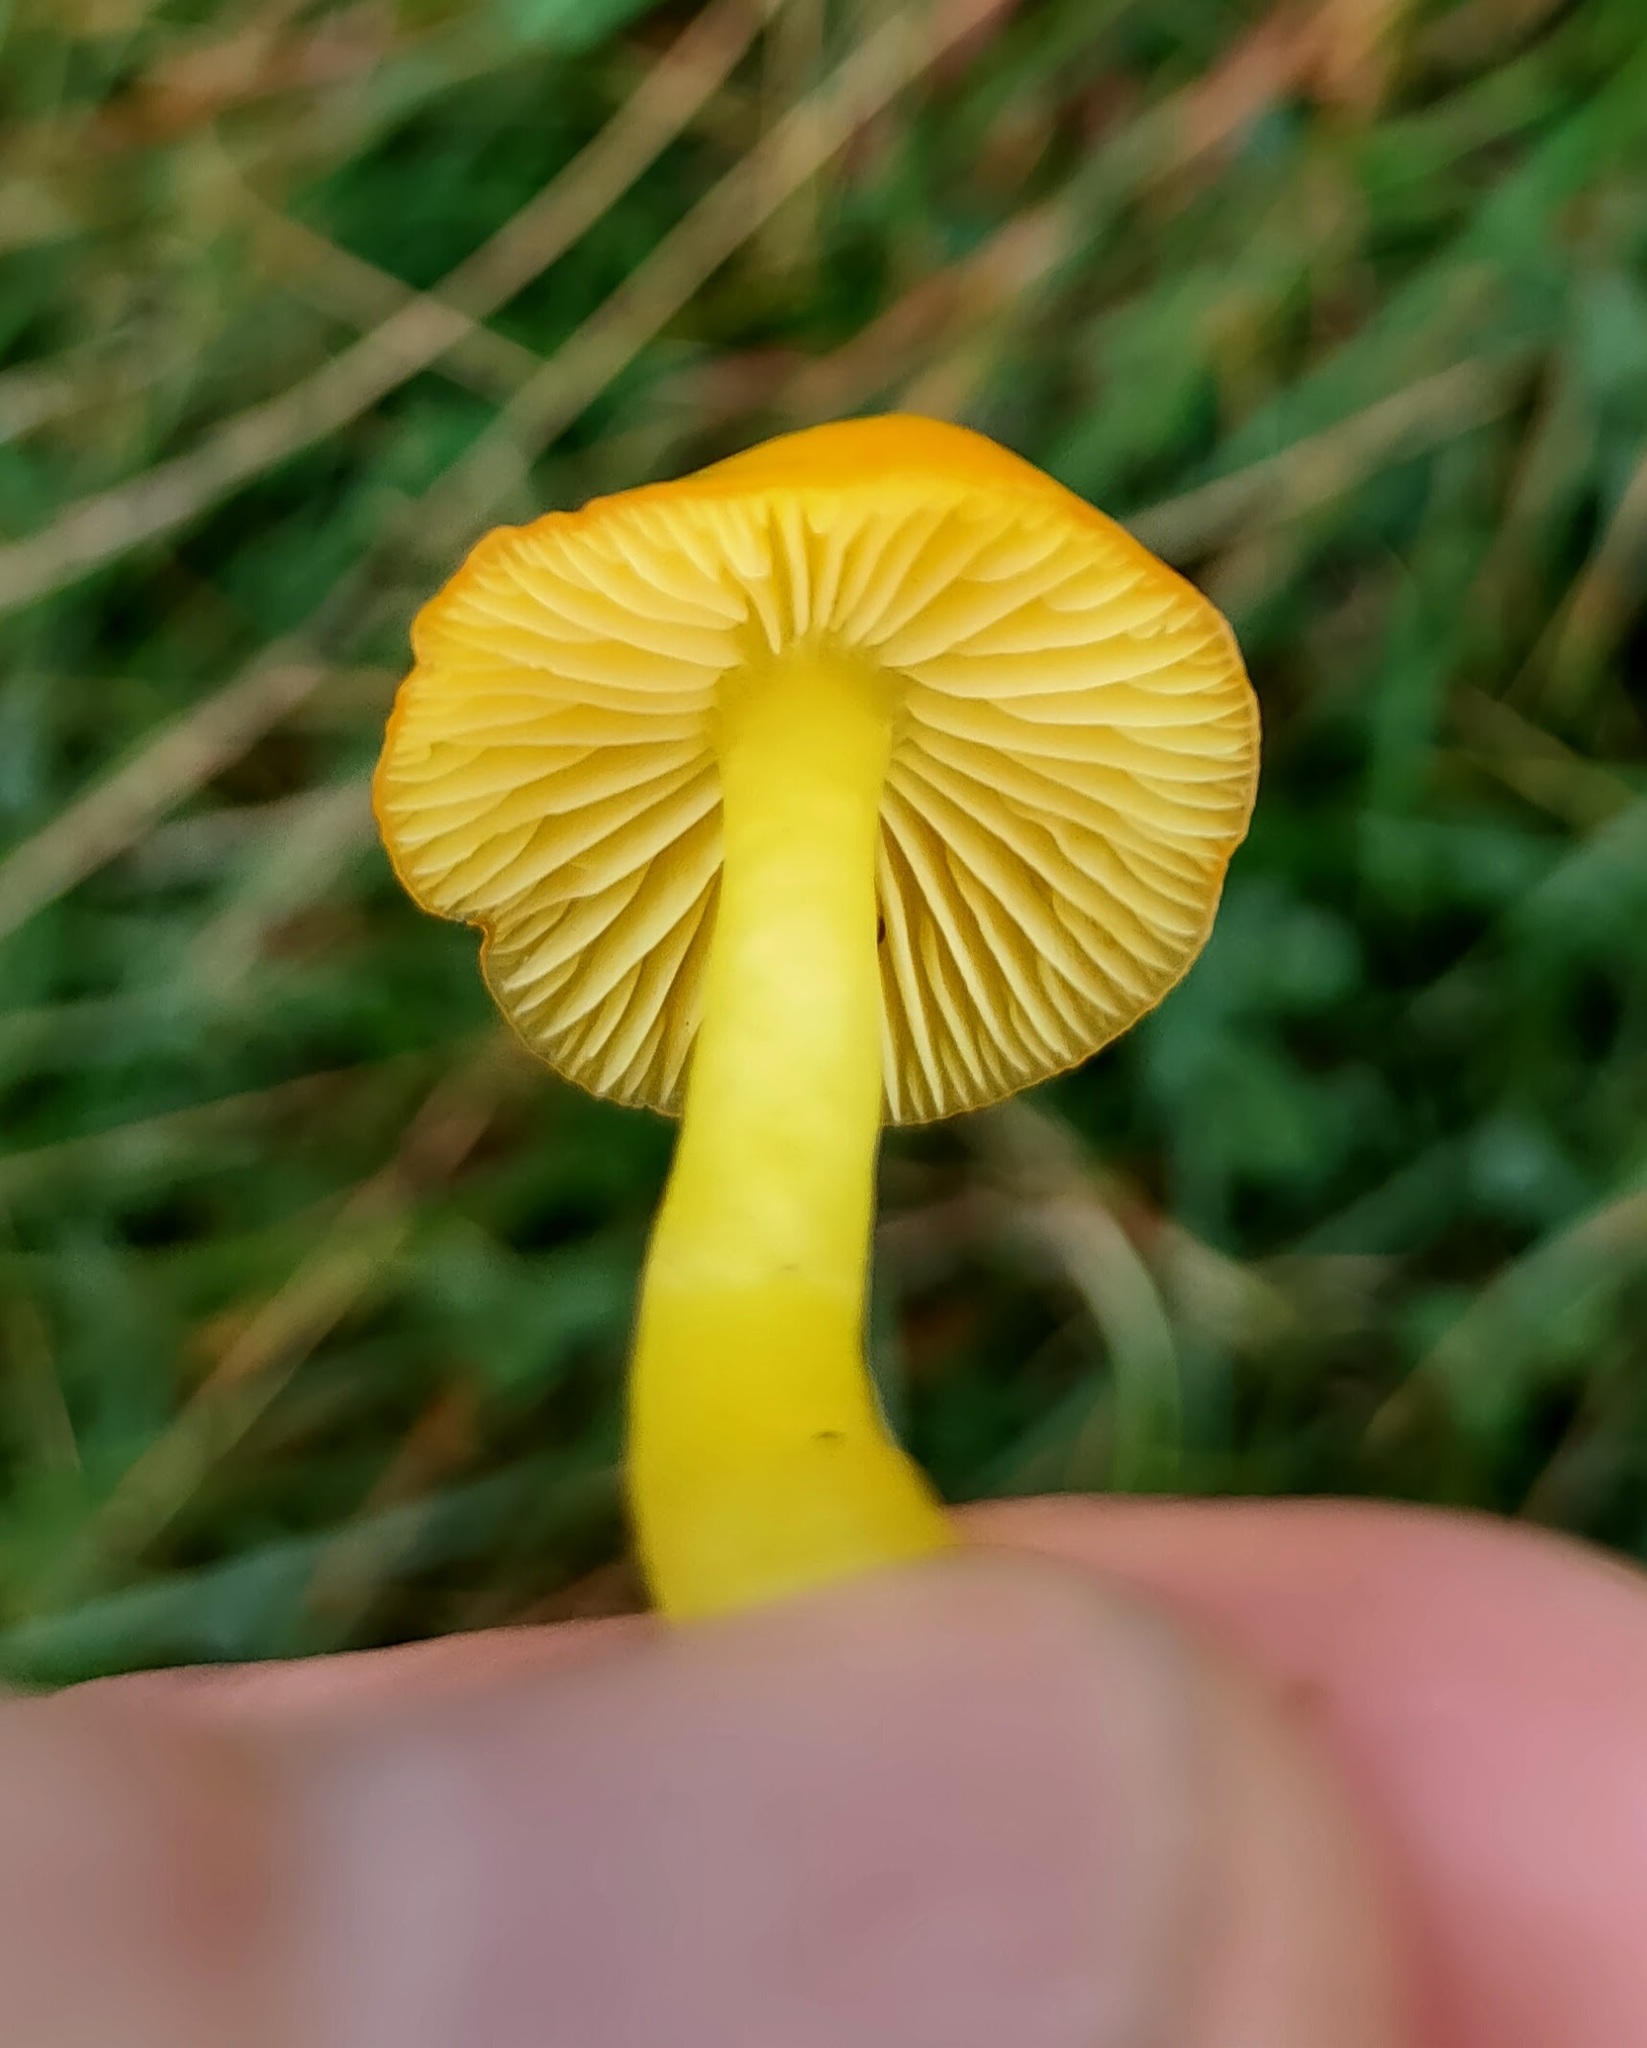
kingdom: Fungi
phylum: Basidiomycota
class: Agaricomycetes
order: Agaricales
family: Hygrophoraceae
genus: Hygrocybe
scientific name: Hygrocybe chlorophana
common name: Golden waxcap
